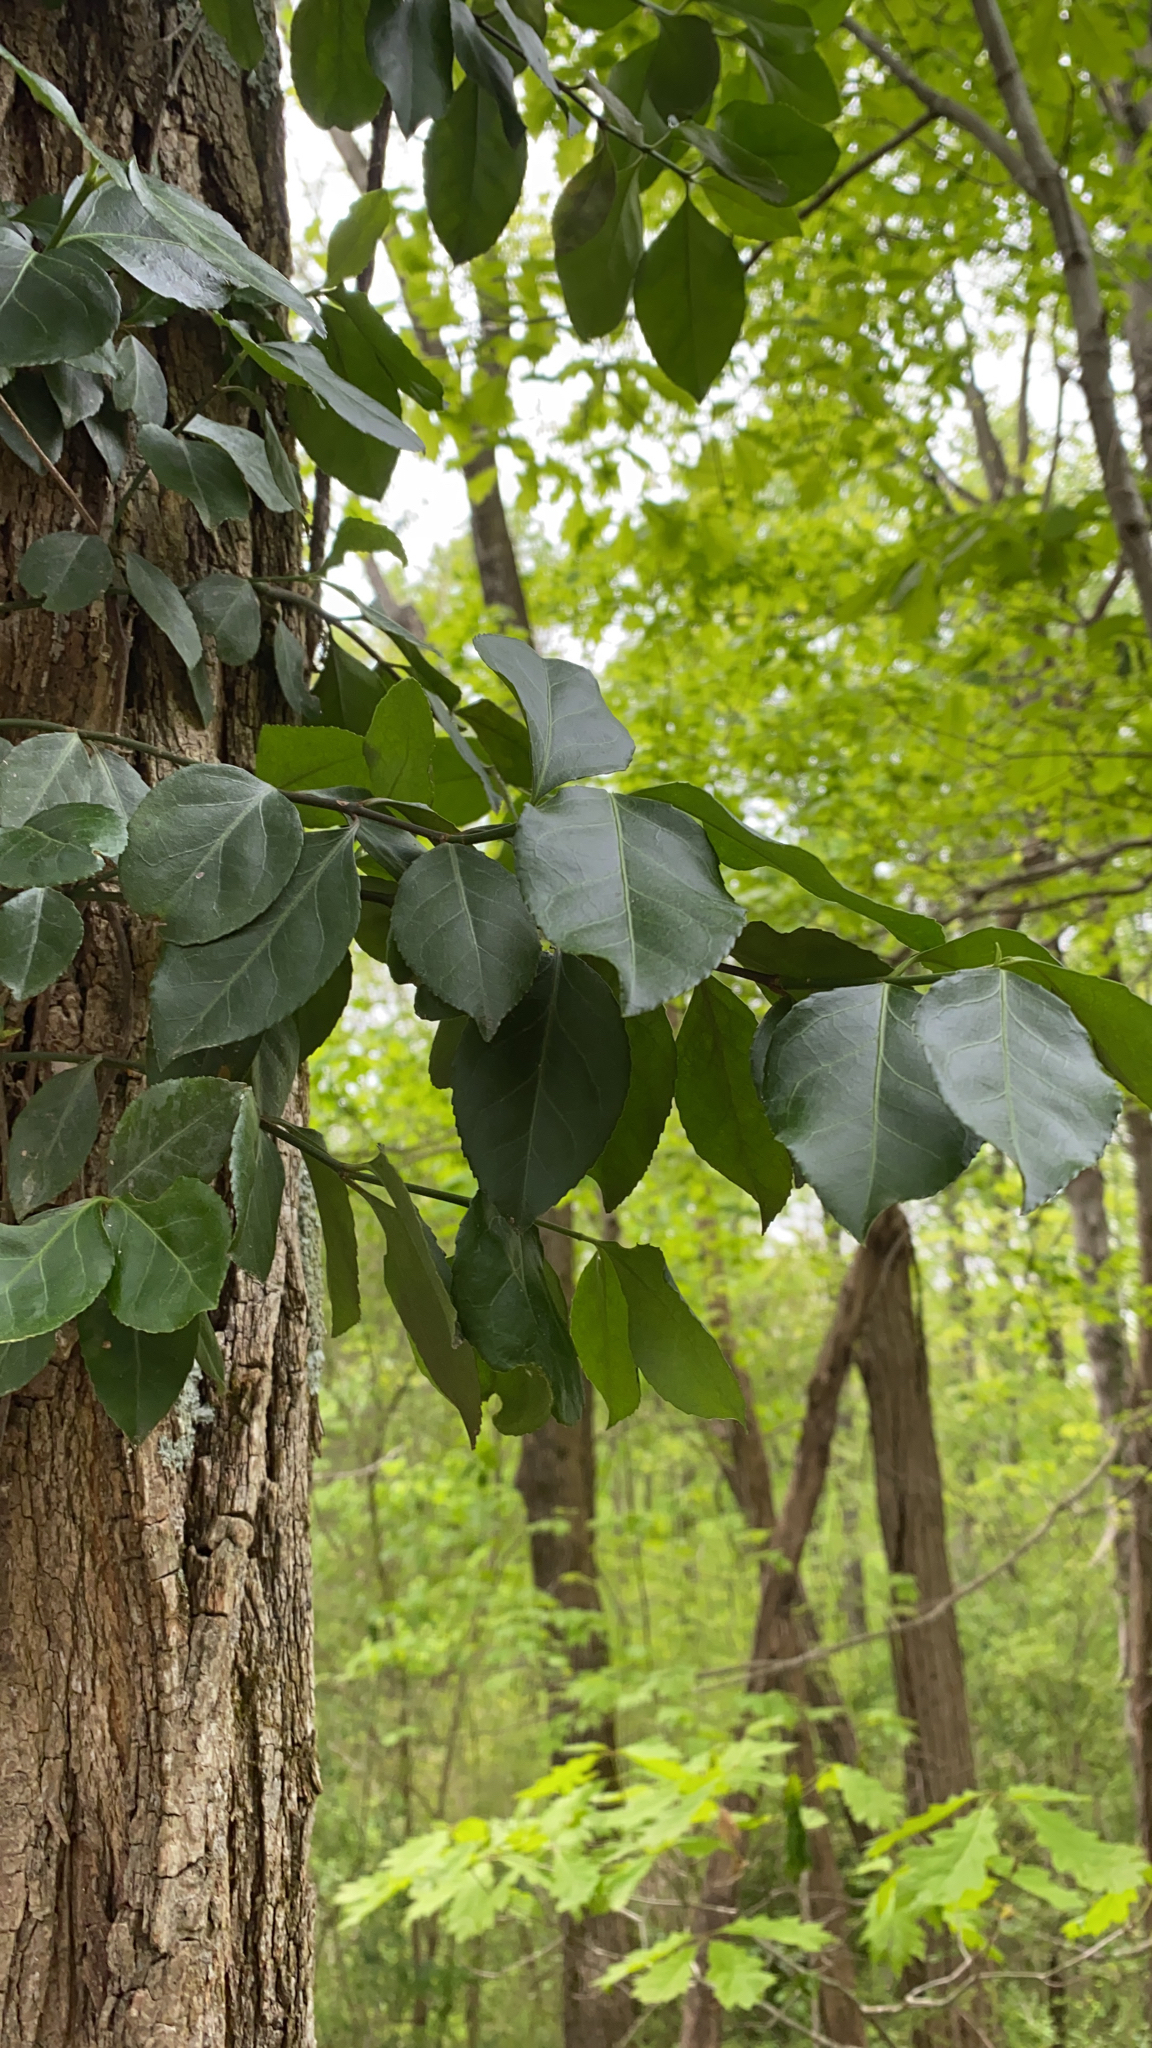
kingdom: Plantae
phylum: Tracheophyta
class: Magnoliopsida
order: Celastrales
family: Celastraceae
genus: Euonymus
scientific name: Euonymus fortunei
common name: Climbing euonymus
